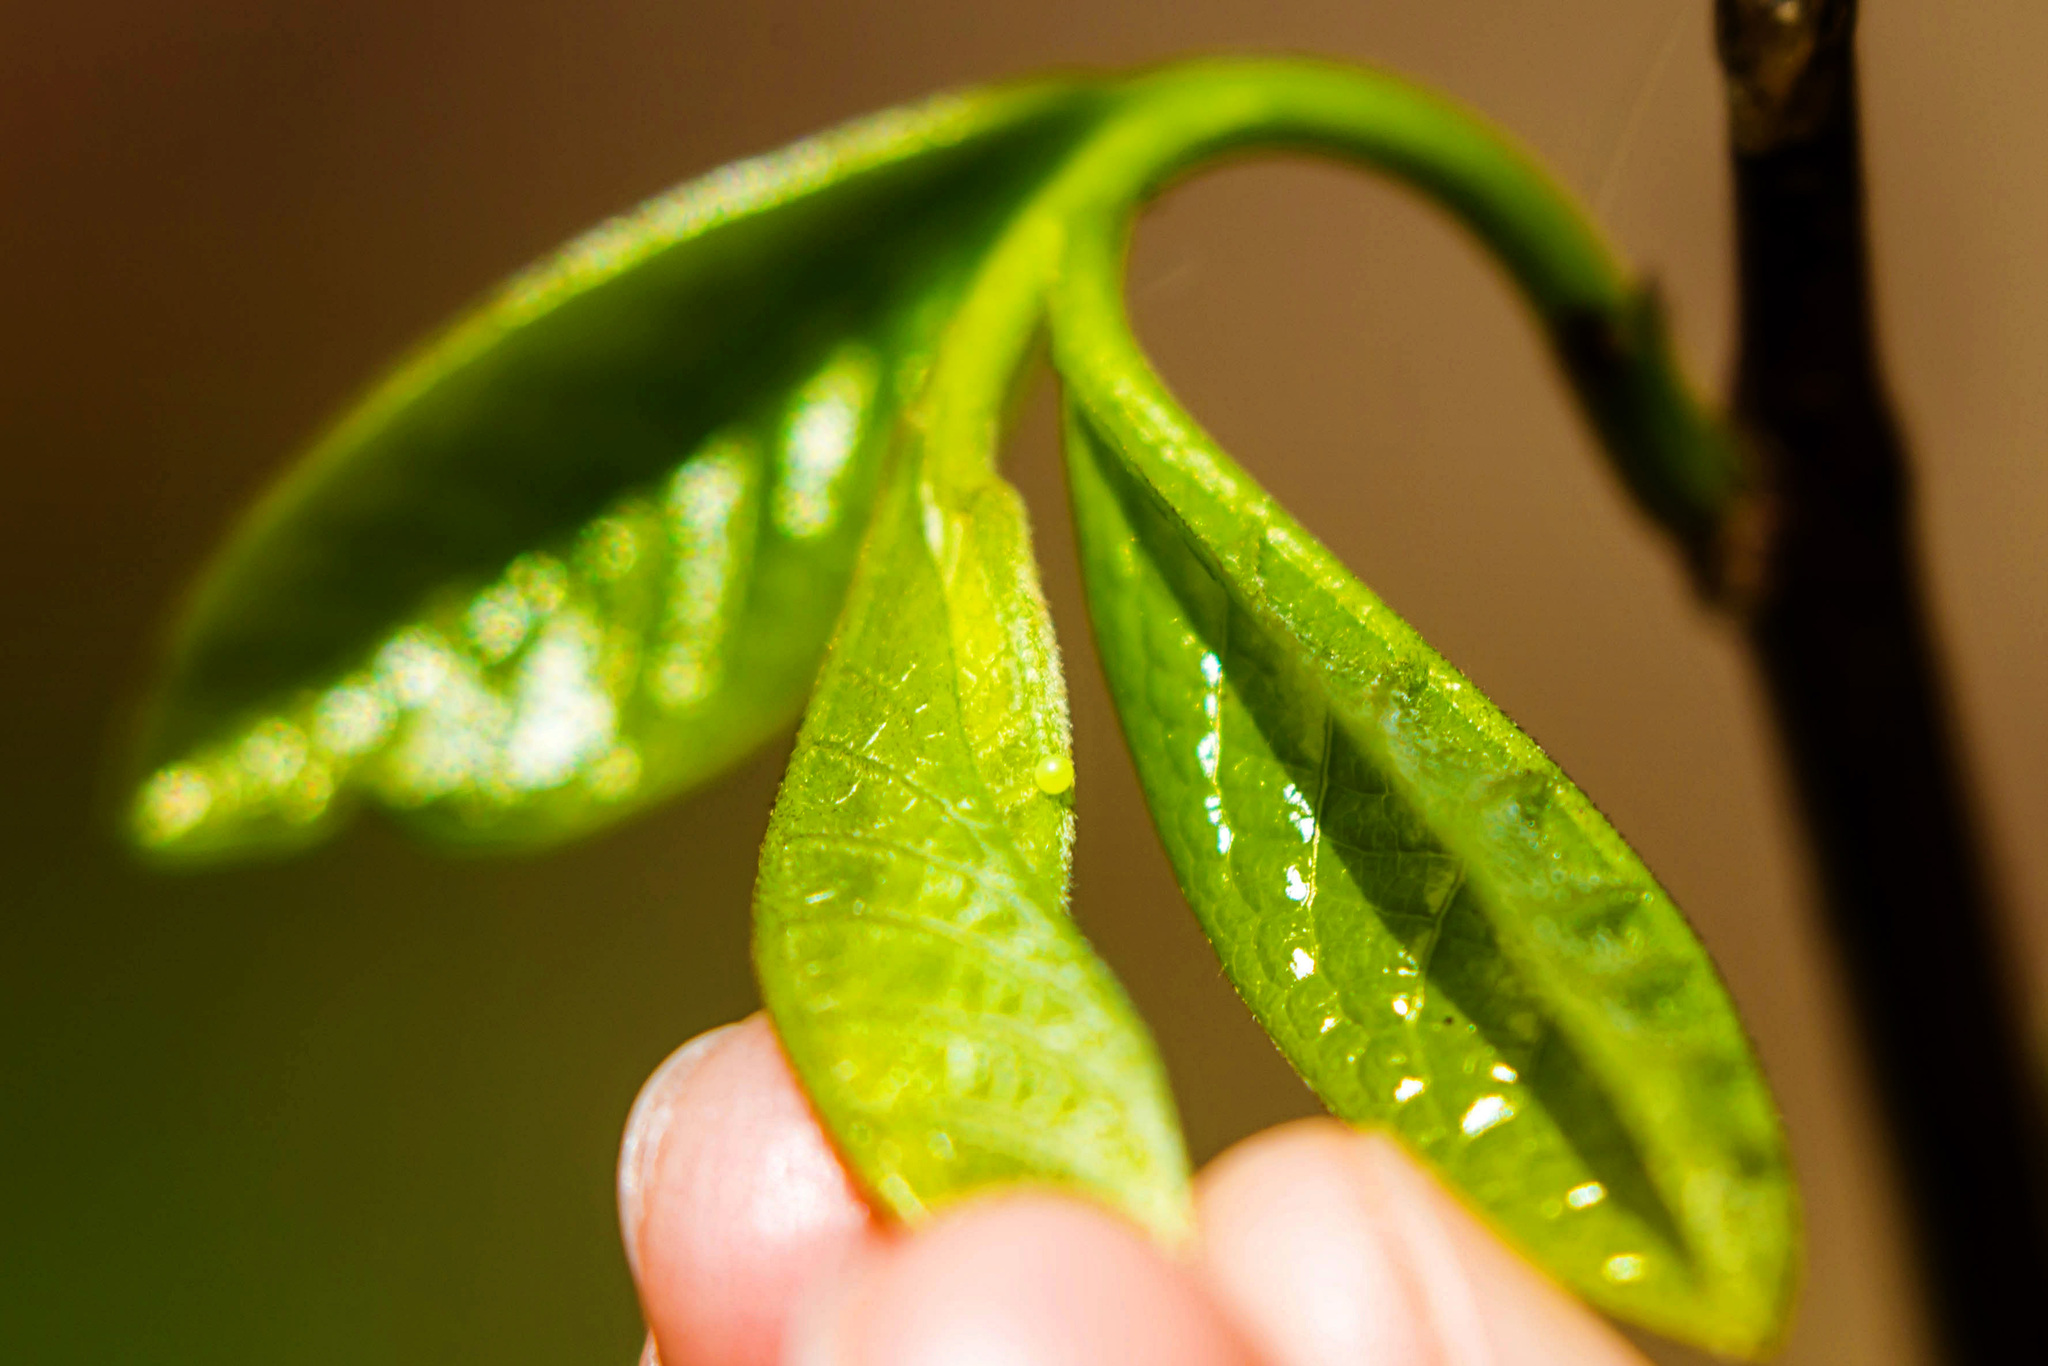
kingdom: Animalia
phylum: Arthropoda
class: Insecta
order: Lepidoptera
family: Papilionidae
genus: Protographium
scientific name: Protographium marcellus
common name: Zebra swallowtail
